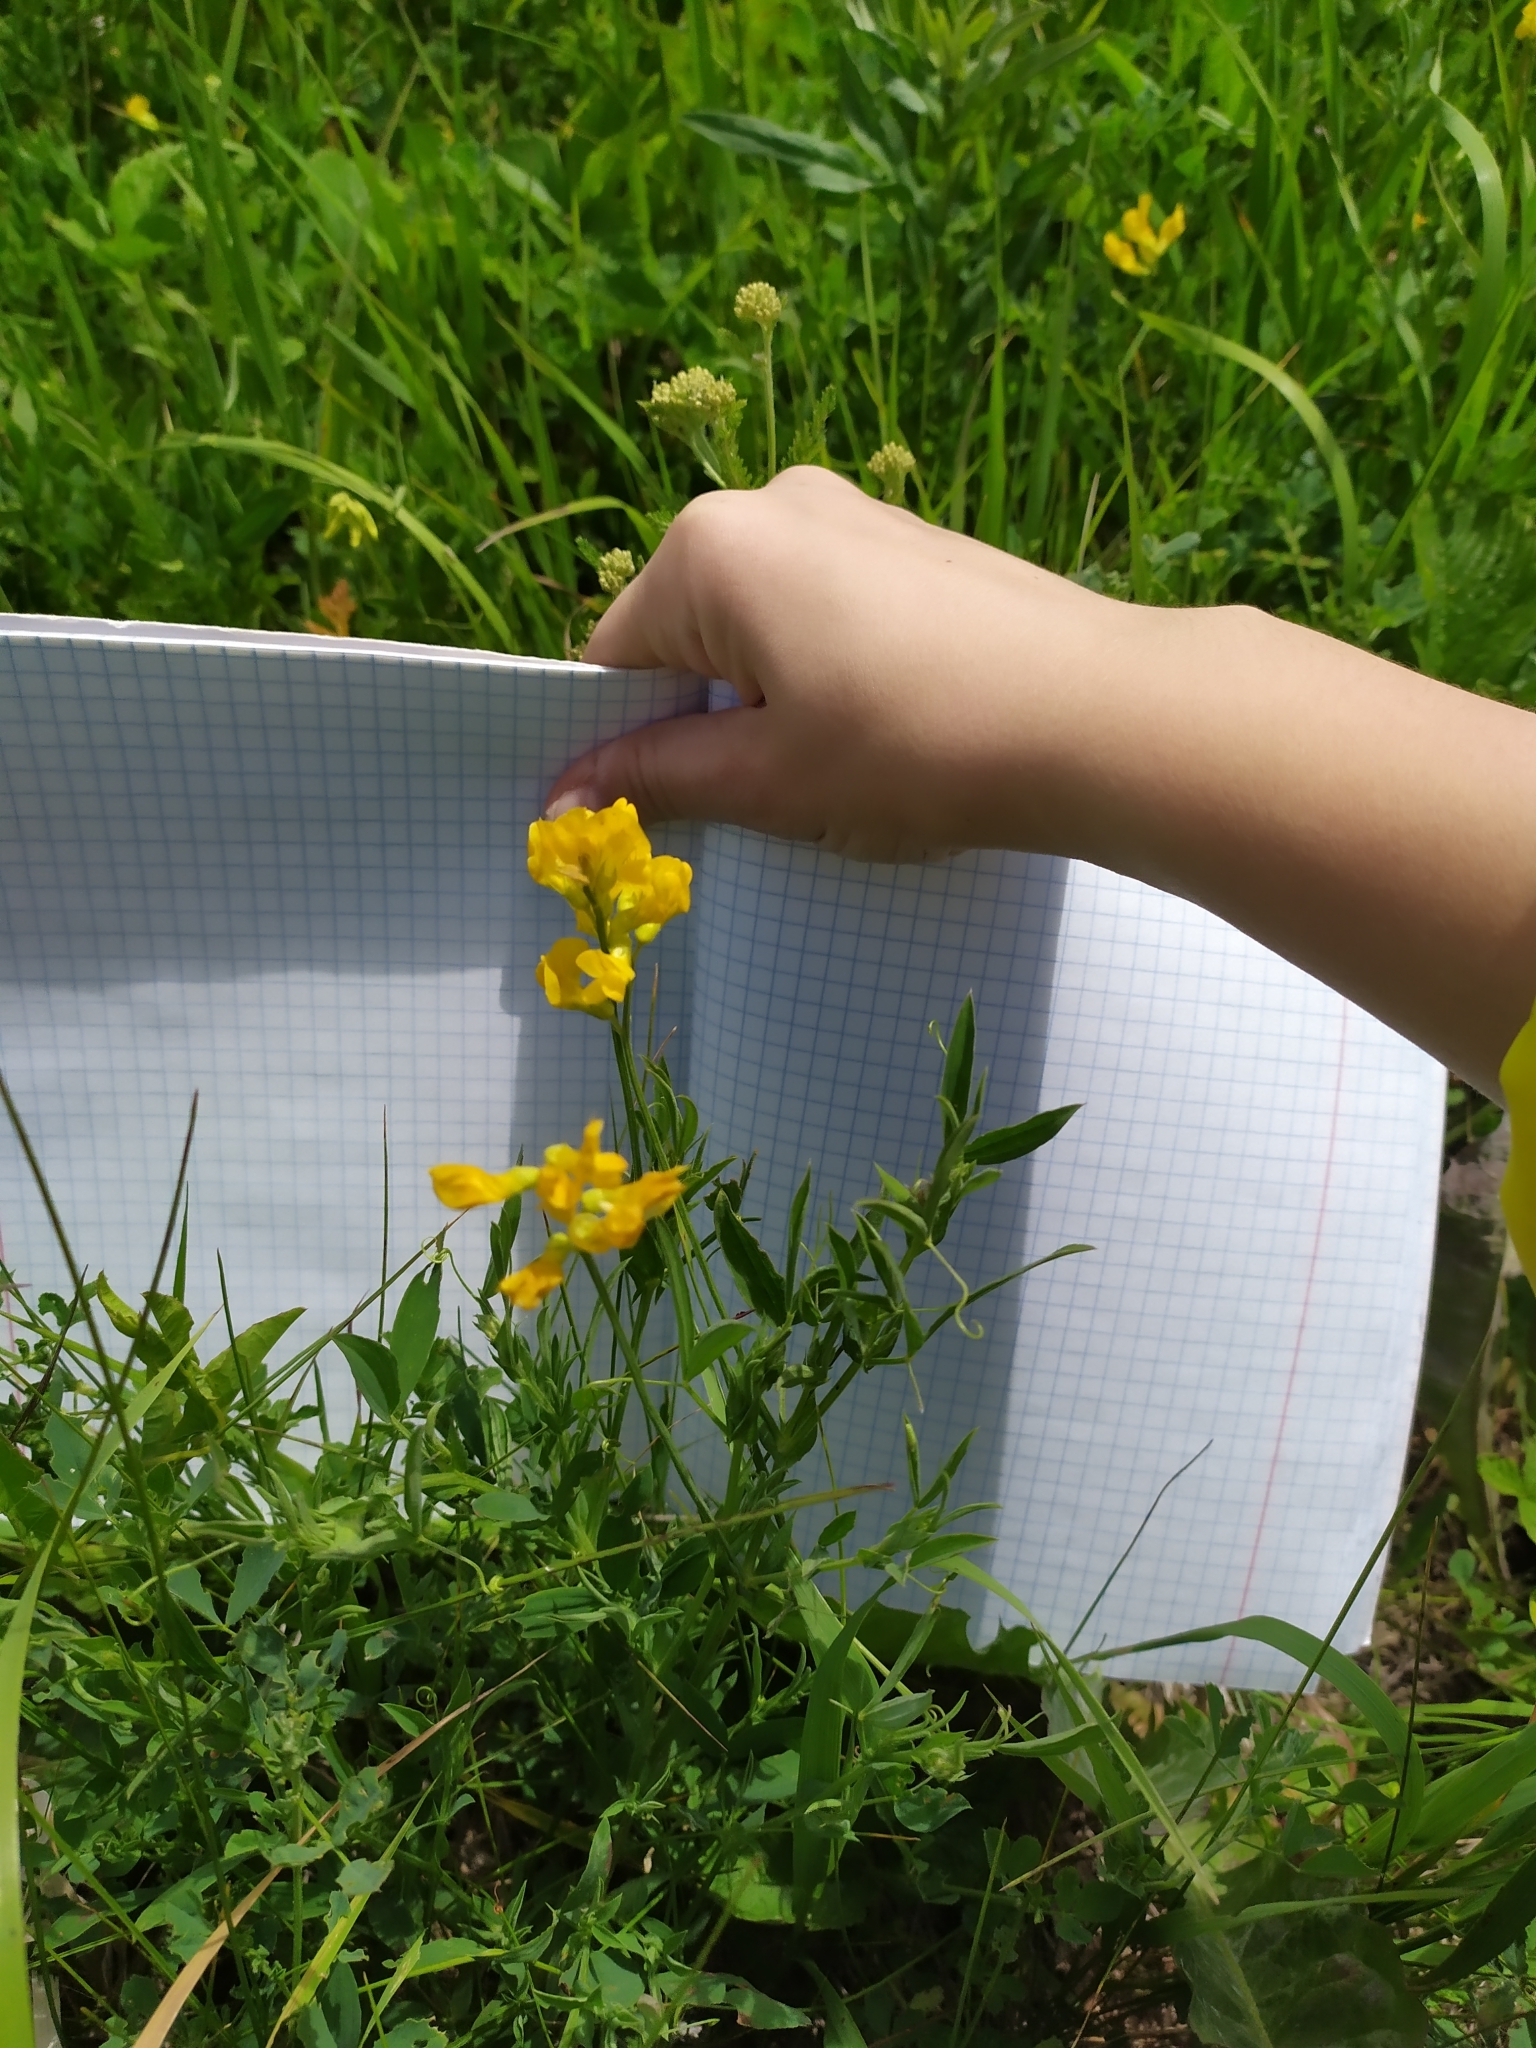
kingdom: Plantae
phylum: Tracheophyta
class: Magnoliopsida
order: Fabales
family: Fabaceae
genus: Lathyrus
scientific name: Lathyrus pratensis
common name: Meadow vetchling
